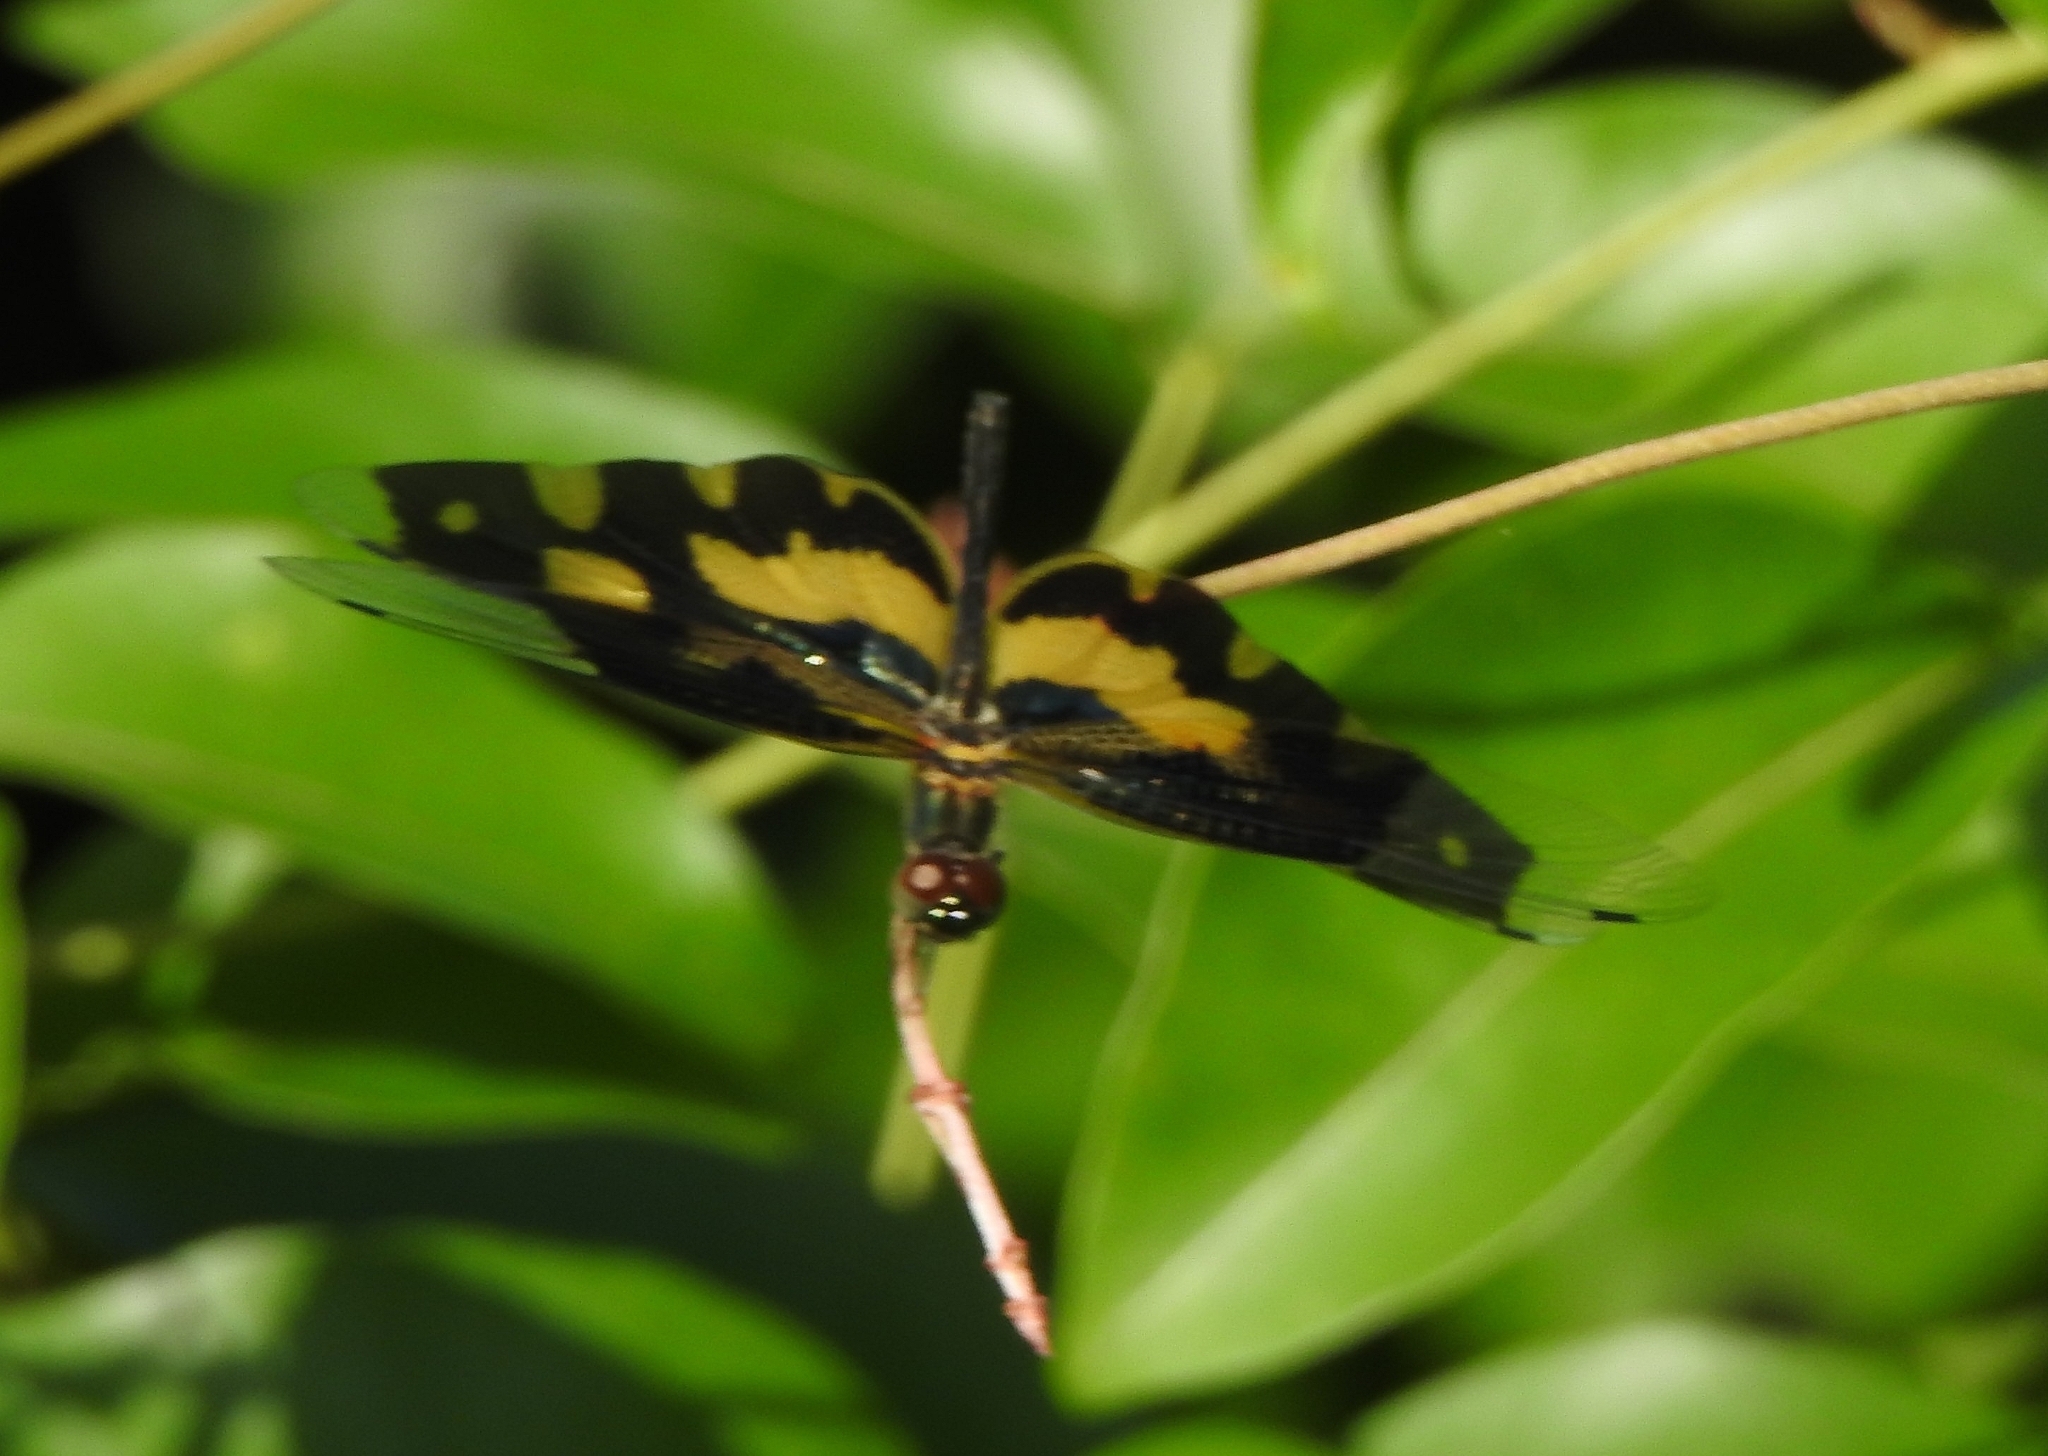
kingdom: Animalia
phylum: Arthropoda
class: Insecta
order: Odonata
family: Libellulidae
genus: Rhyothemis
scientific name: Rhyothemis variegata
